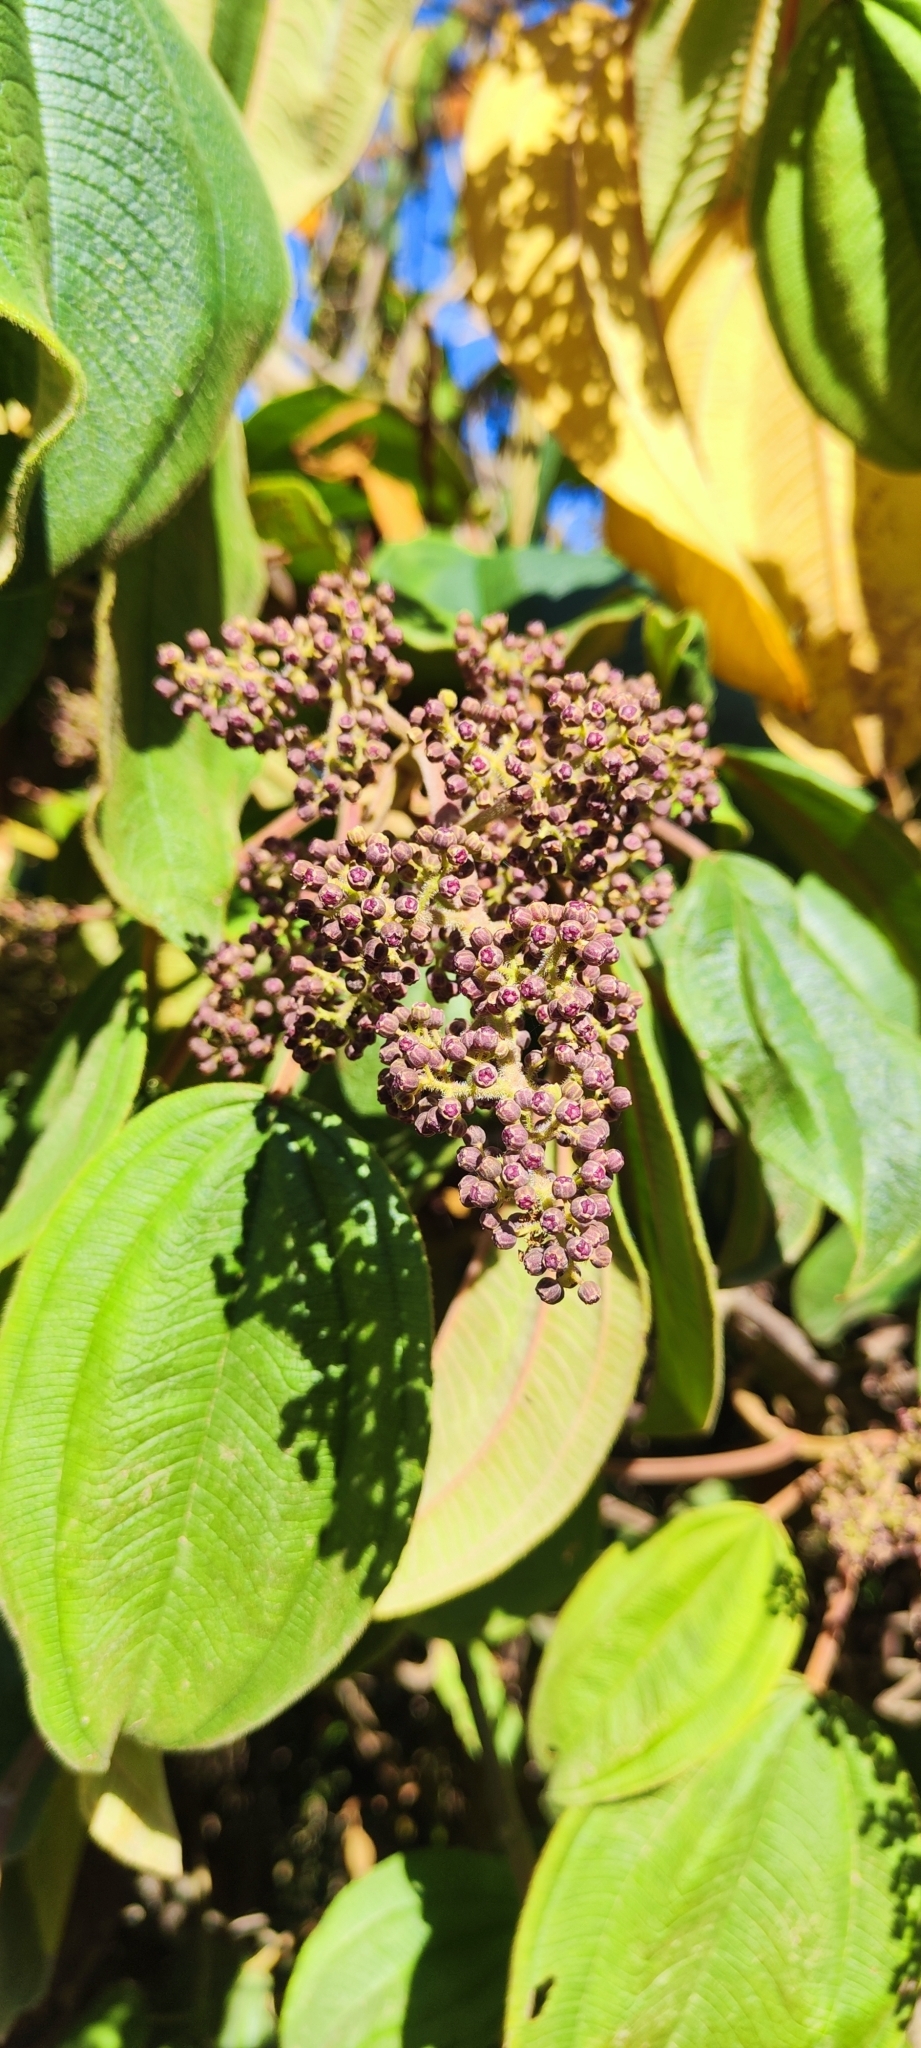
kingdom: Plantae
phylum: Tracheophyta
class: Magnoliopsida
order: Myrtales
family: Melastomataceae
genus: Miconia
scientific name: Miconia firma
